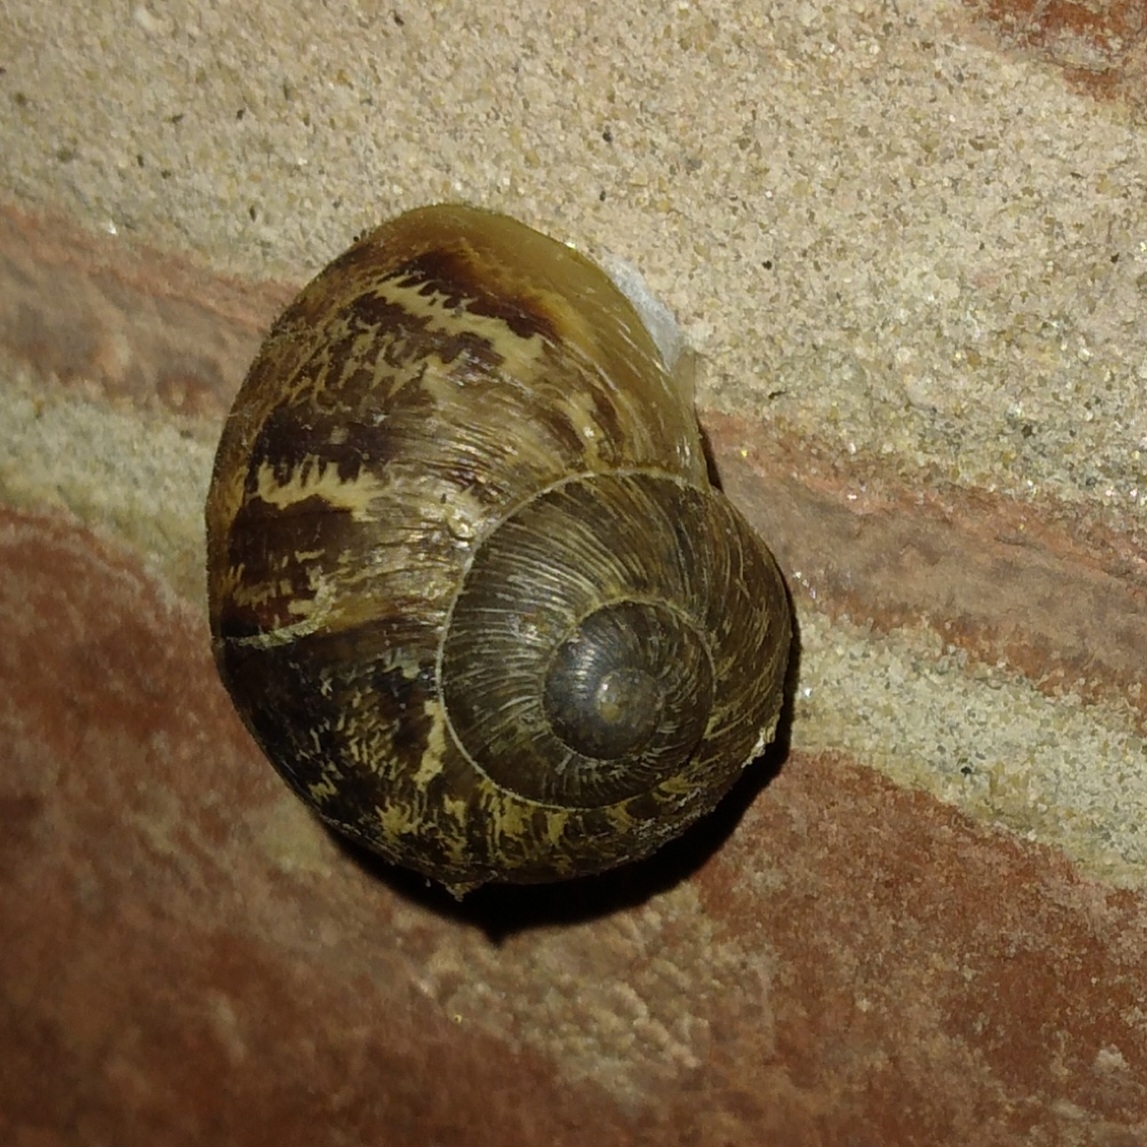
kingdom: Animalia
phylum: Mollusca
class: Gastropoda
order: Stylommatophora
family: Helicidae
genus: Cornu
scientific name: Cornu aspersum
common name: Brown garden snail
